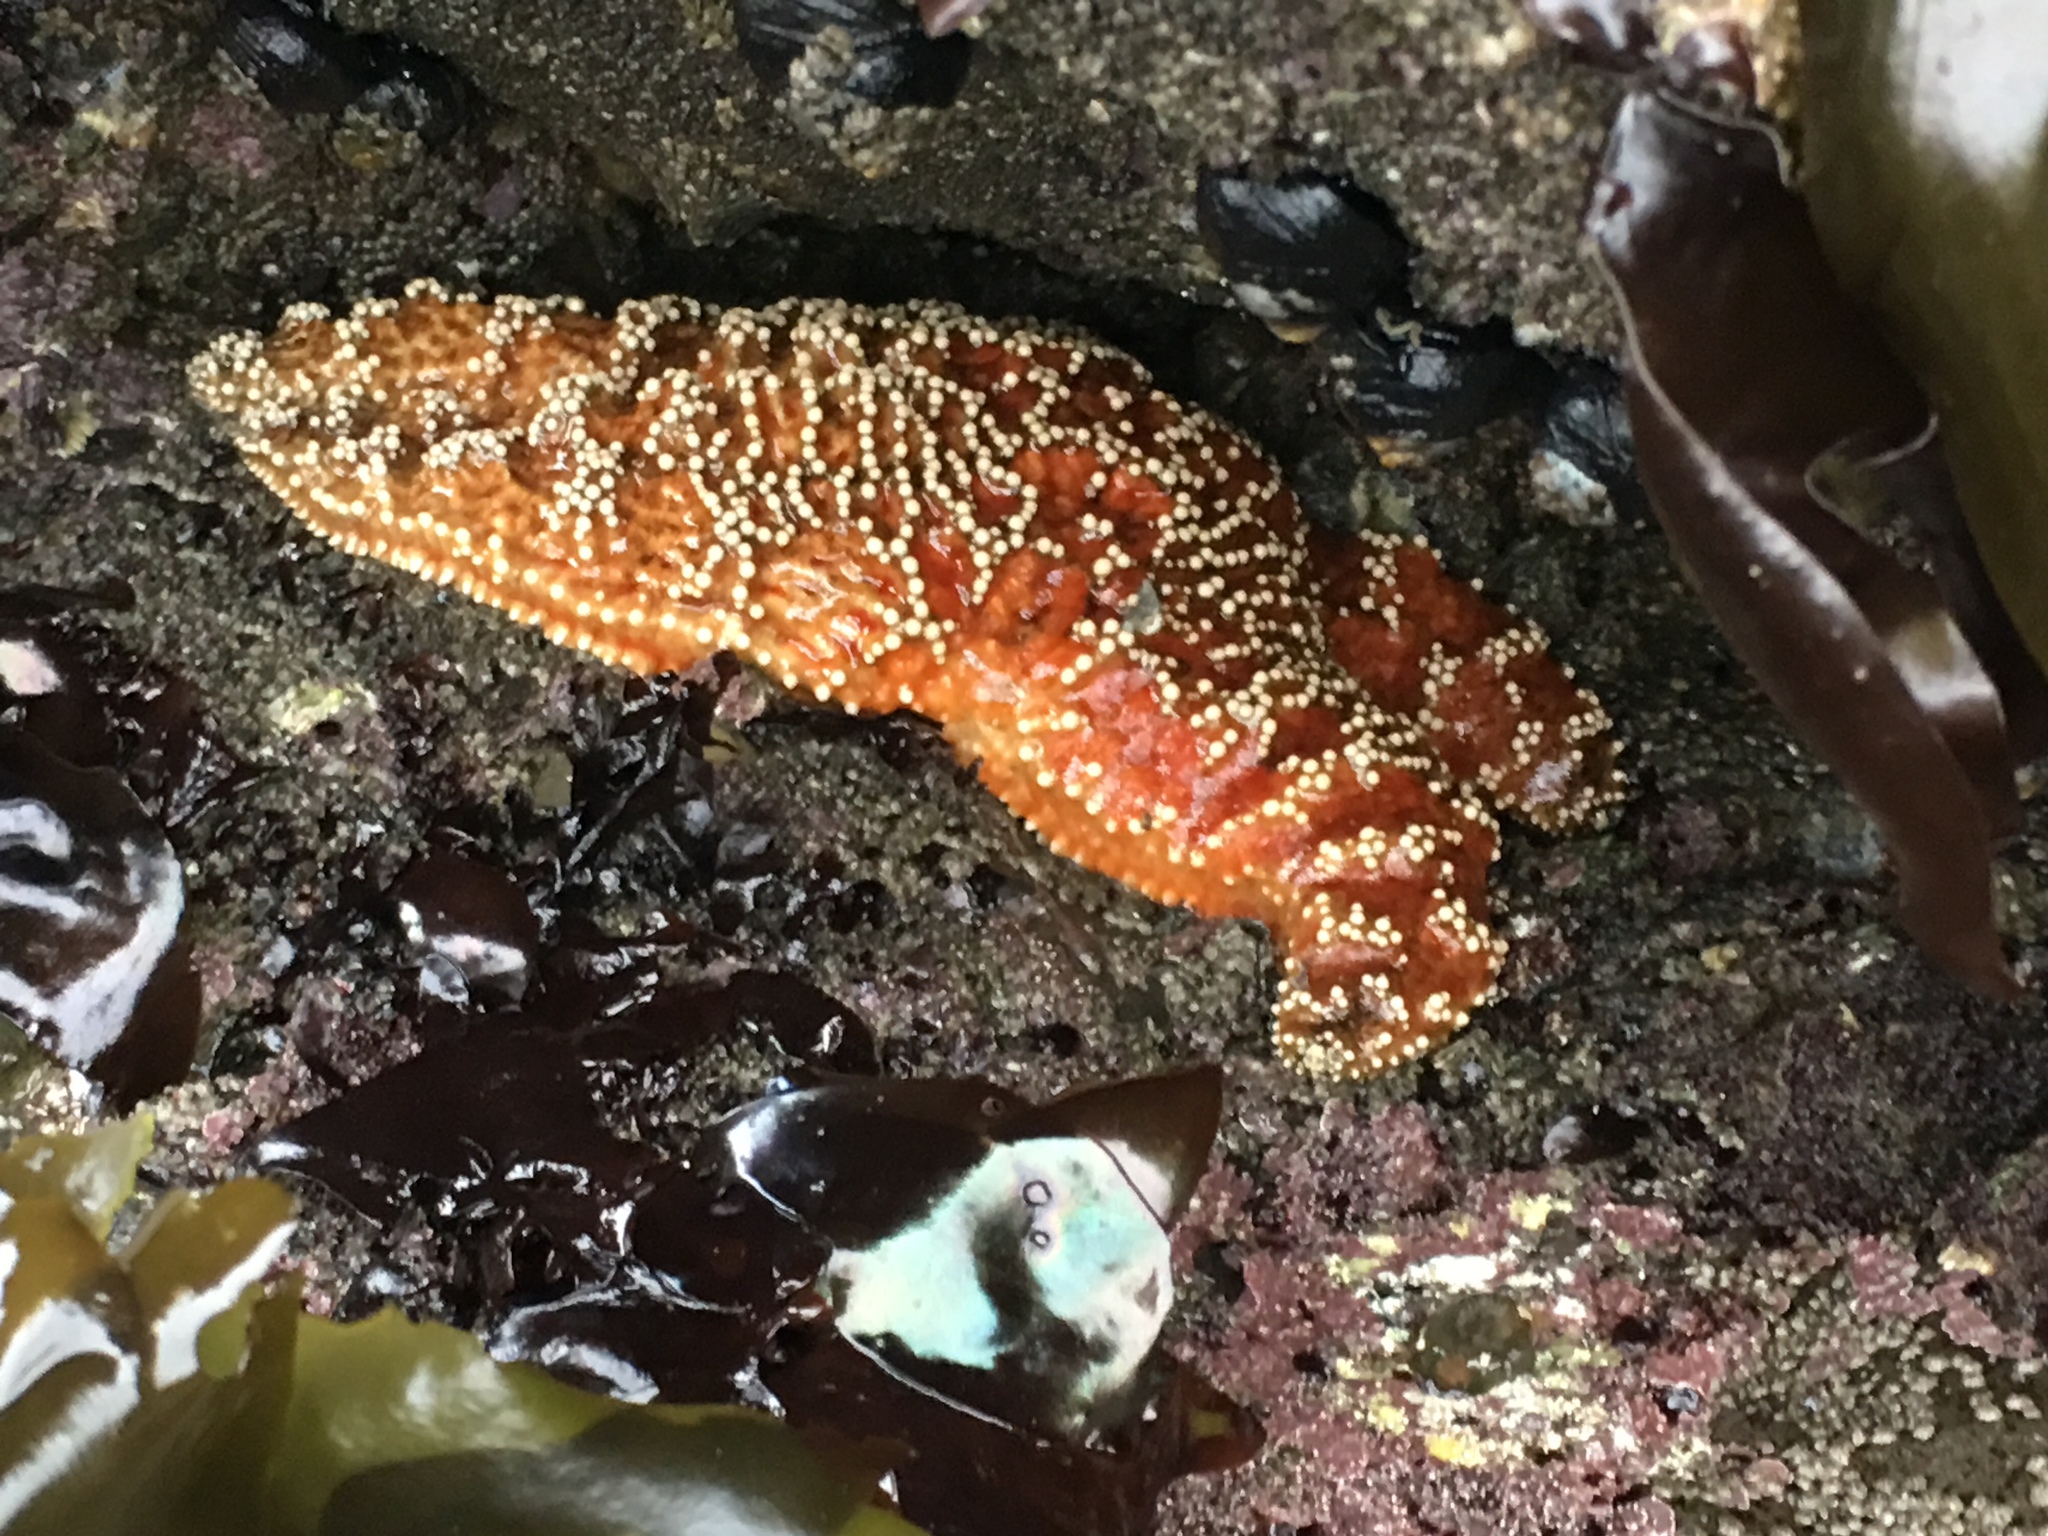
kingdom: Animalia
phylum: Echinodermata
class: Asteroidea
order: Forcipulatida
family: Asteriidae
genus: Pisaster
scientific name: Pisaster ochraceus
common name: Ochre stars
